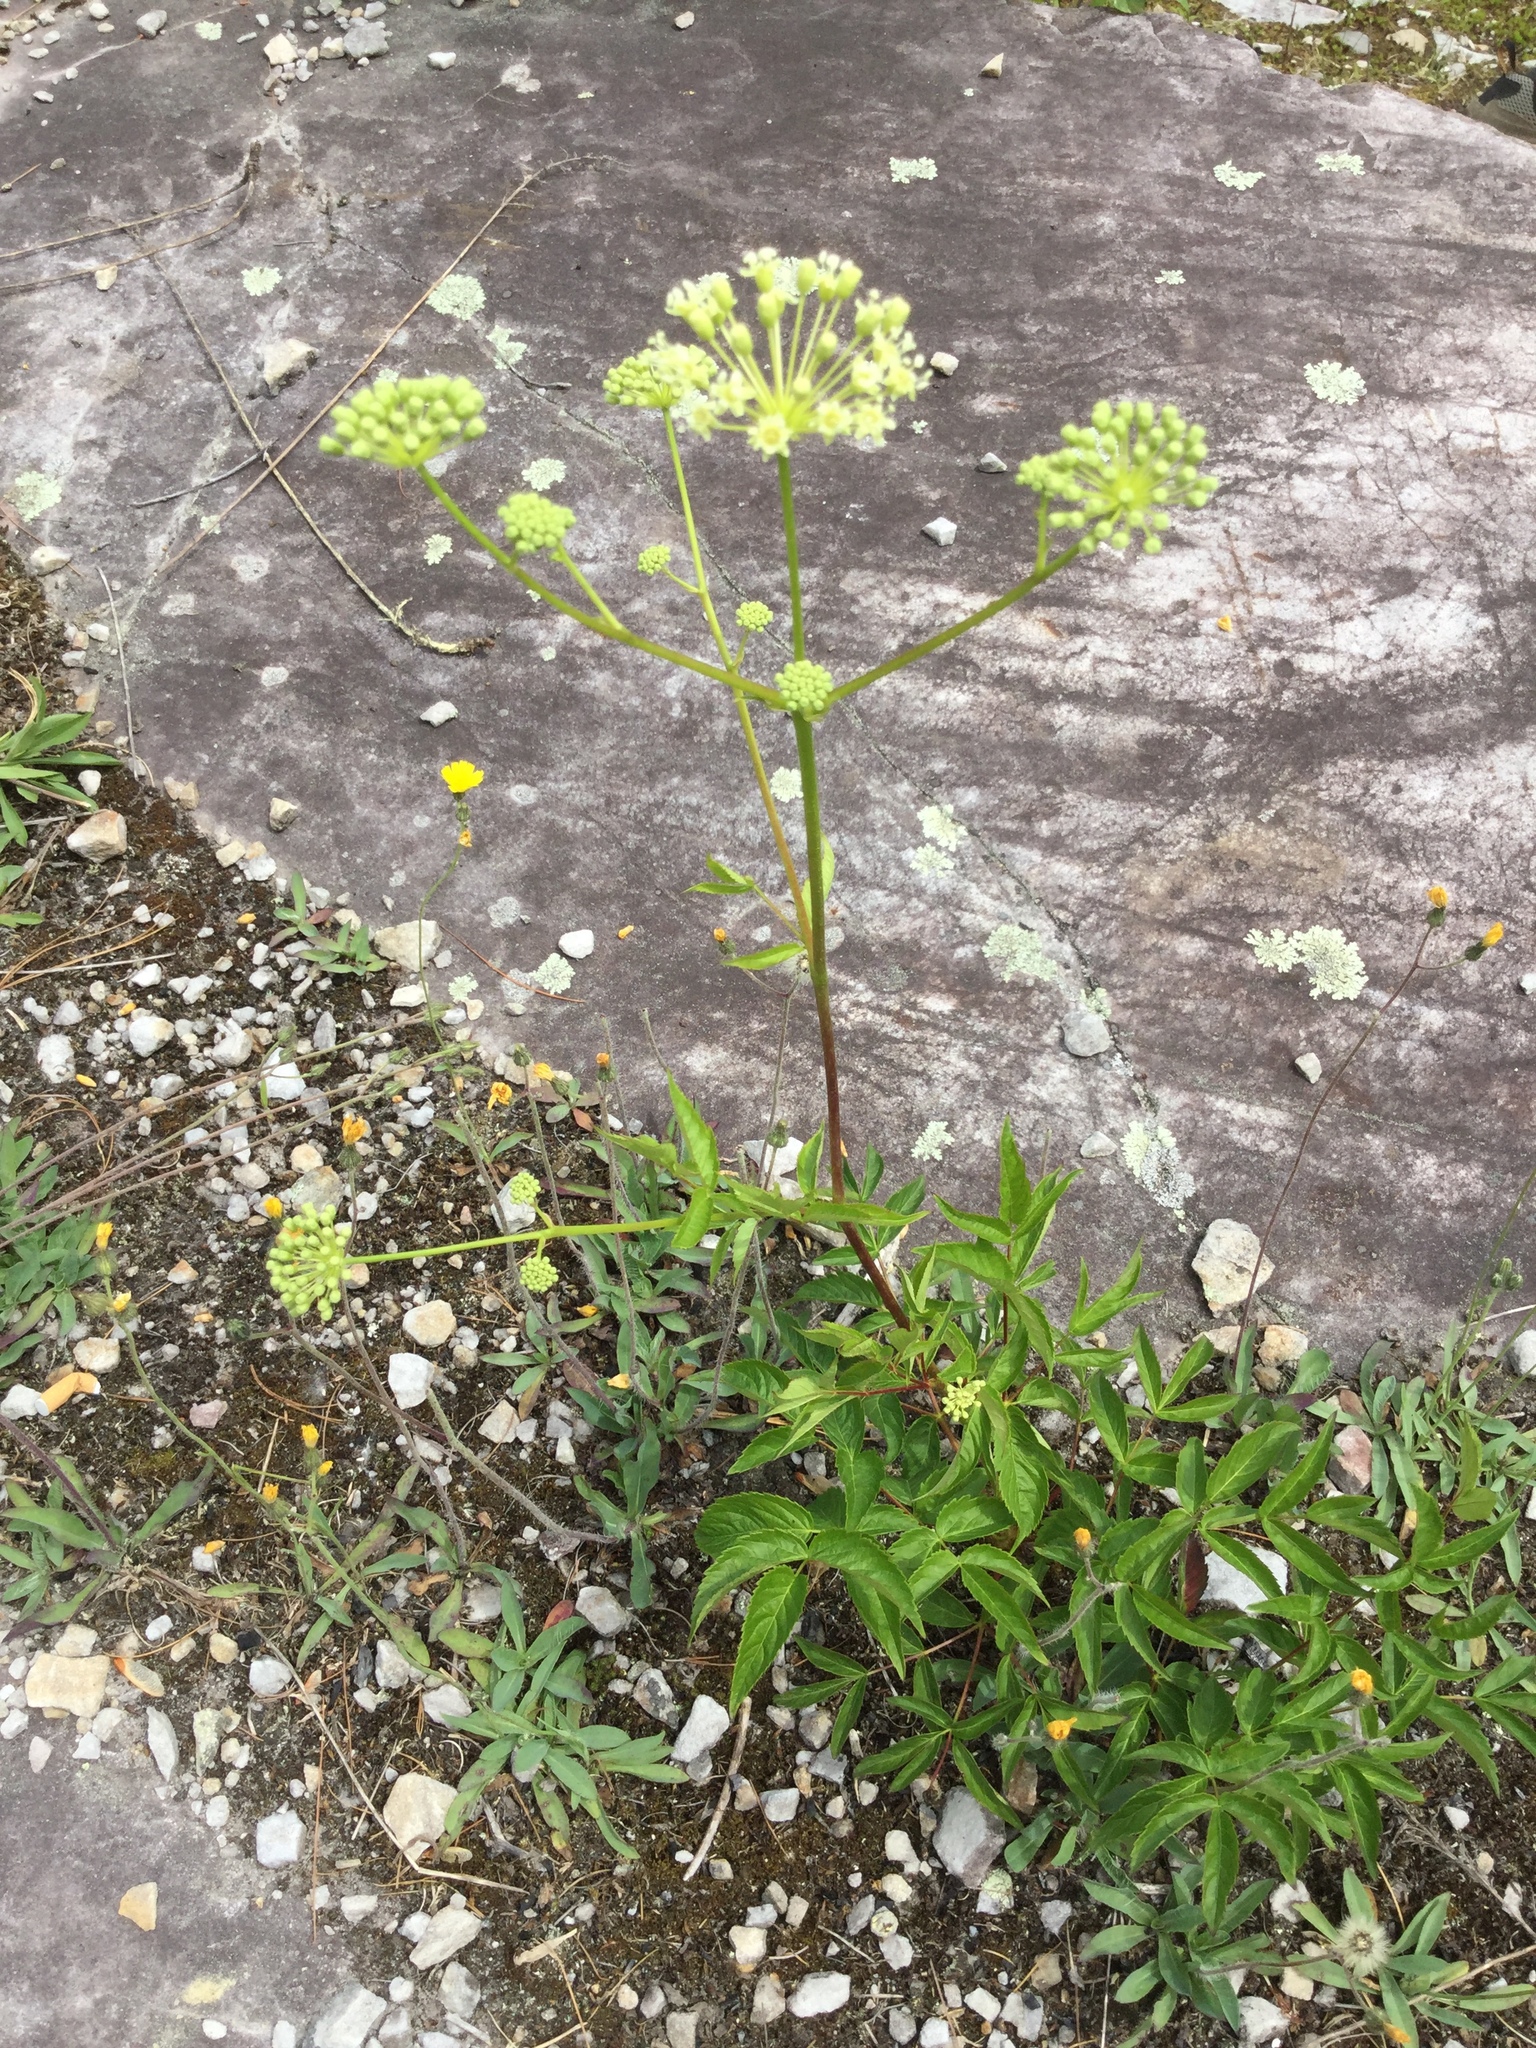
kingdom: Plantae
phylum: Tracheophyta
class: Magnoliopsida
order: Apiales
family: Araliaceae
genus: Aralia
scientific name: Aralia hispida
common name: Bristly sarsaparilla
